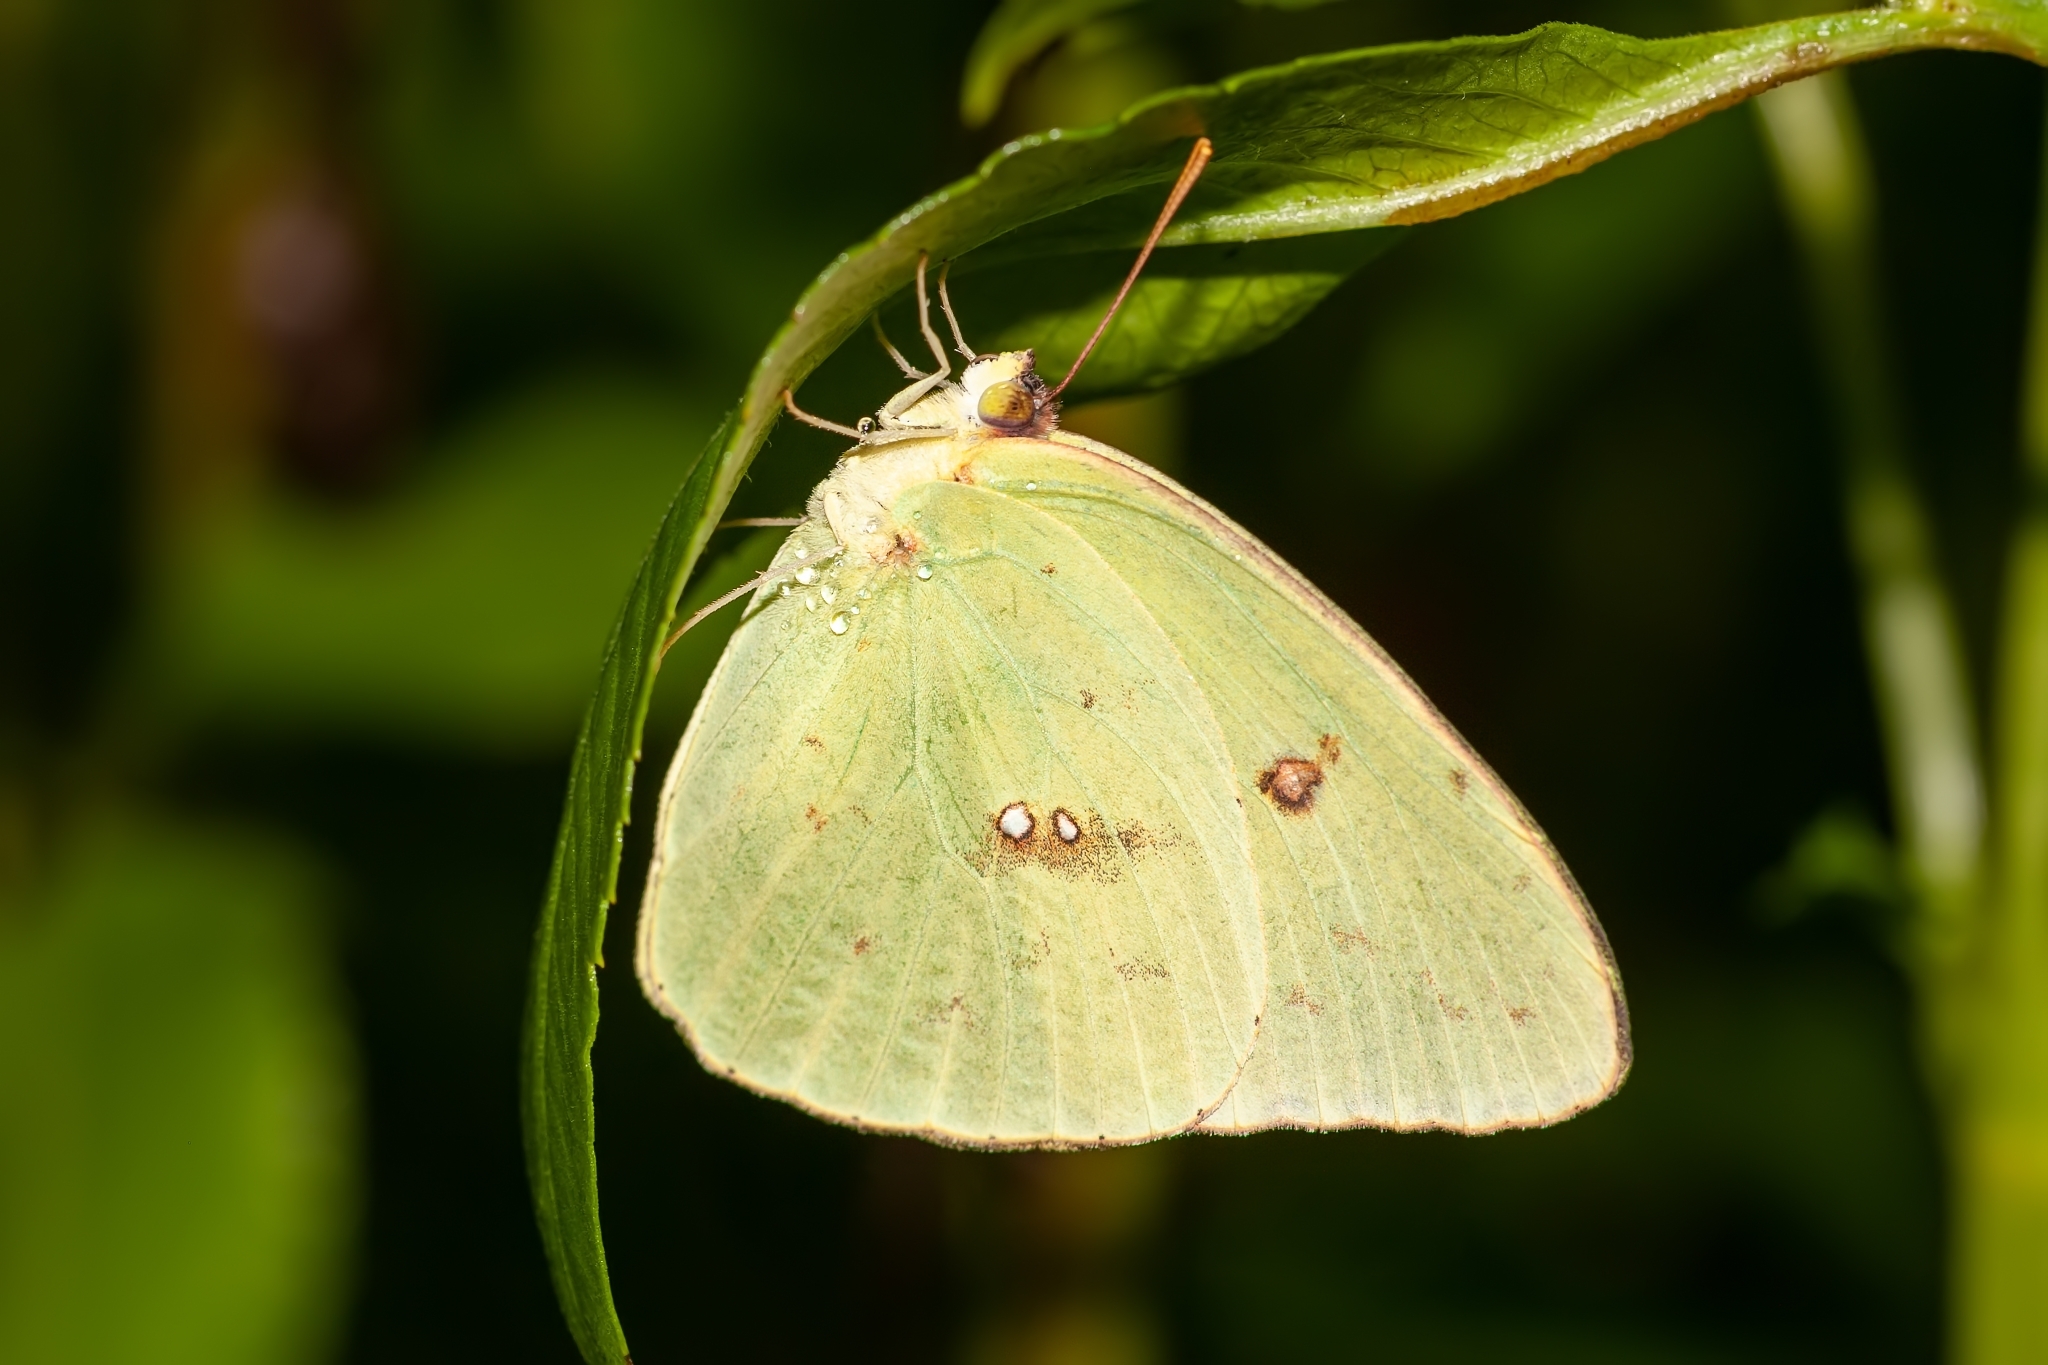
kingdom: Animalia
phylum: Arthropoda
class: Insecta
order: Lepidoptera
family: Pieridae
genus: Phoebis
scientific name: Phoebis sennae
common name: Cloudless sulphur
